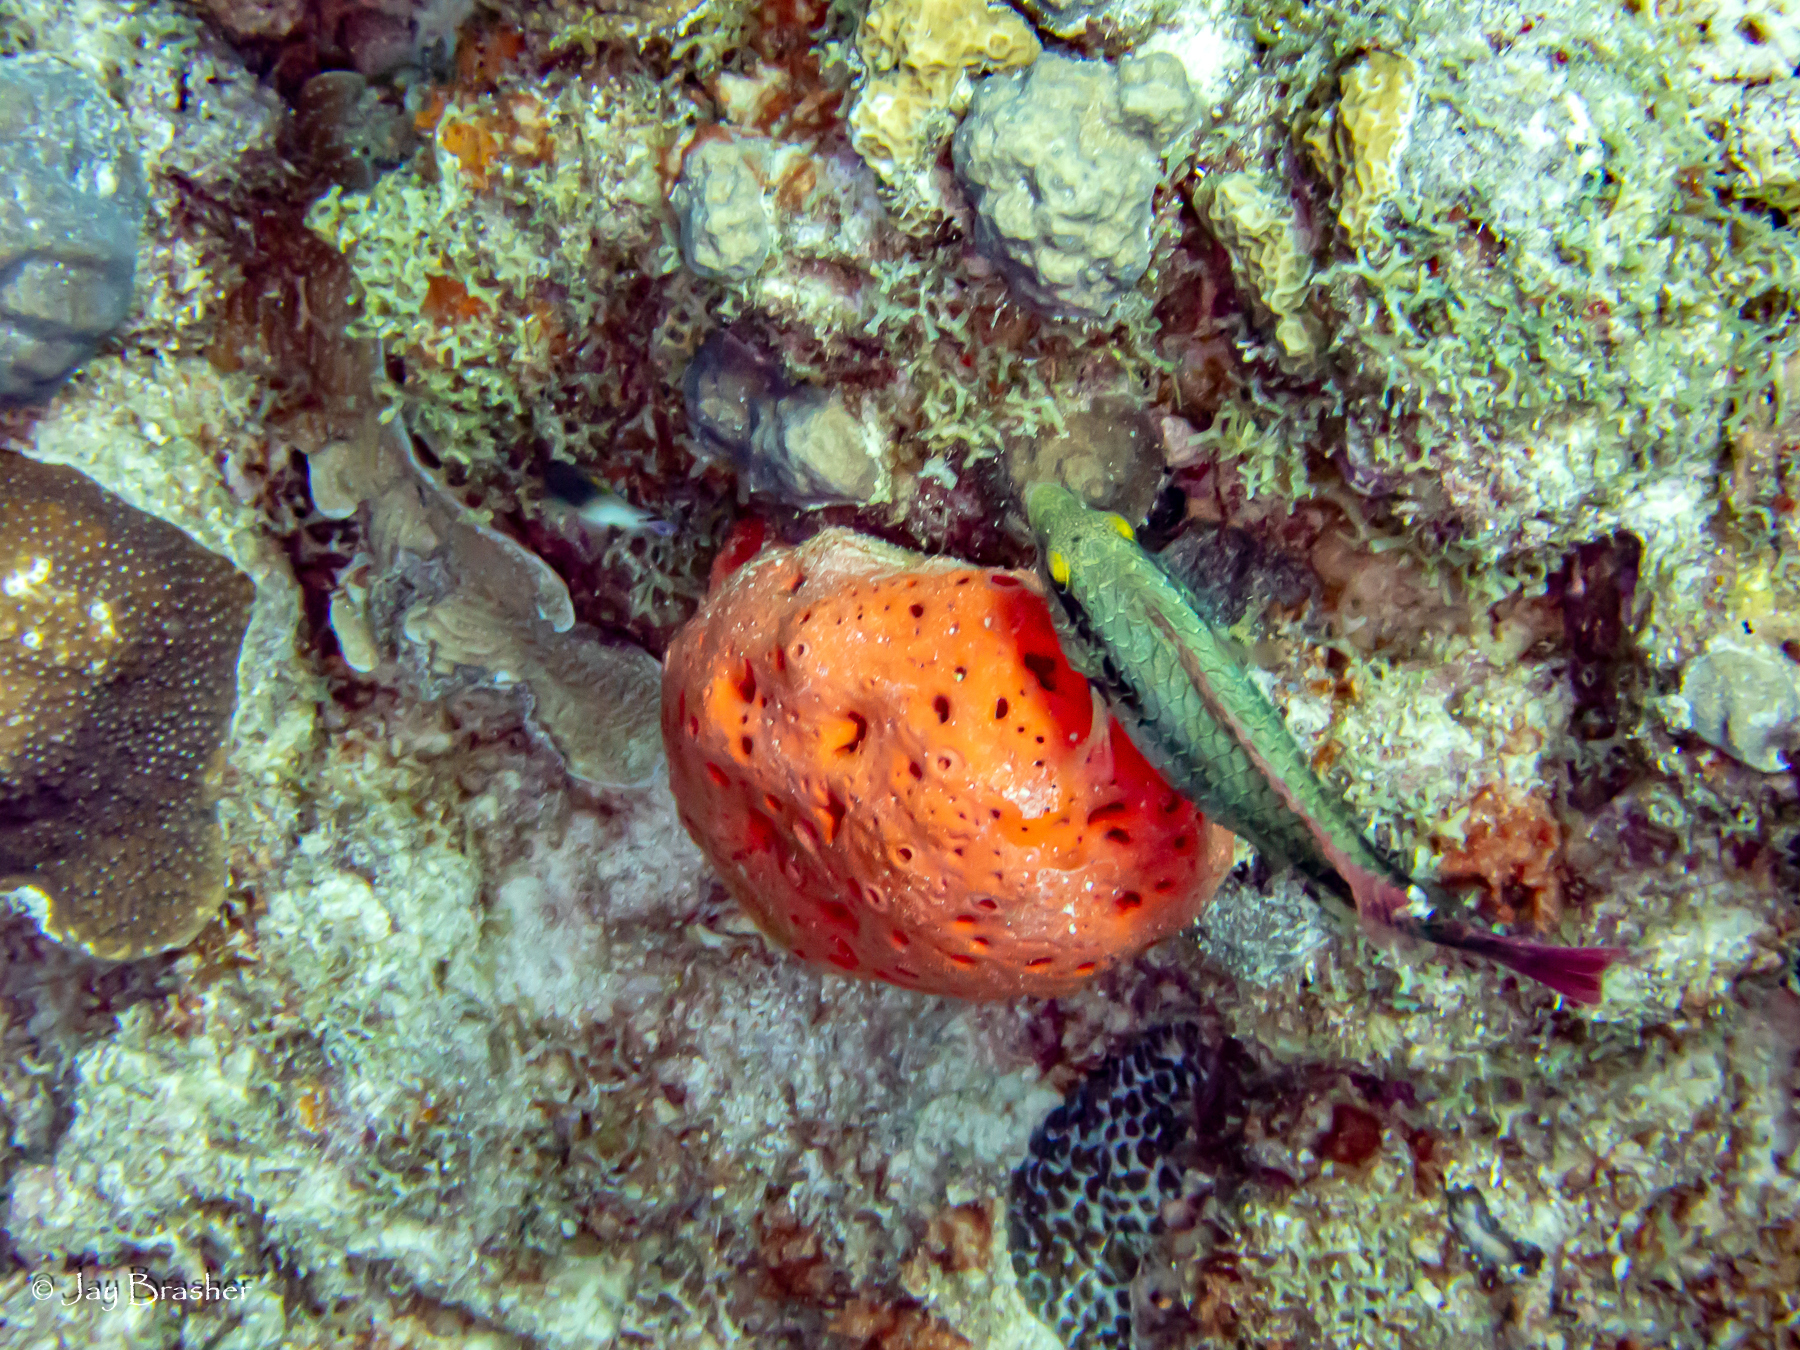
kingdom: Animalia
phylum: Chordata
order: Perciformes
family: Scaridae
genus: Sparisoma
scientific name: Sparisoma aurofrenatum
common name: Redband parrotfish
